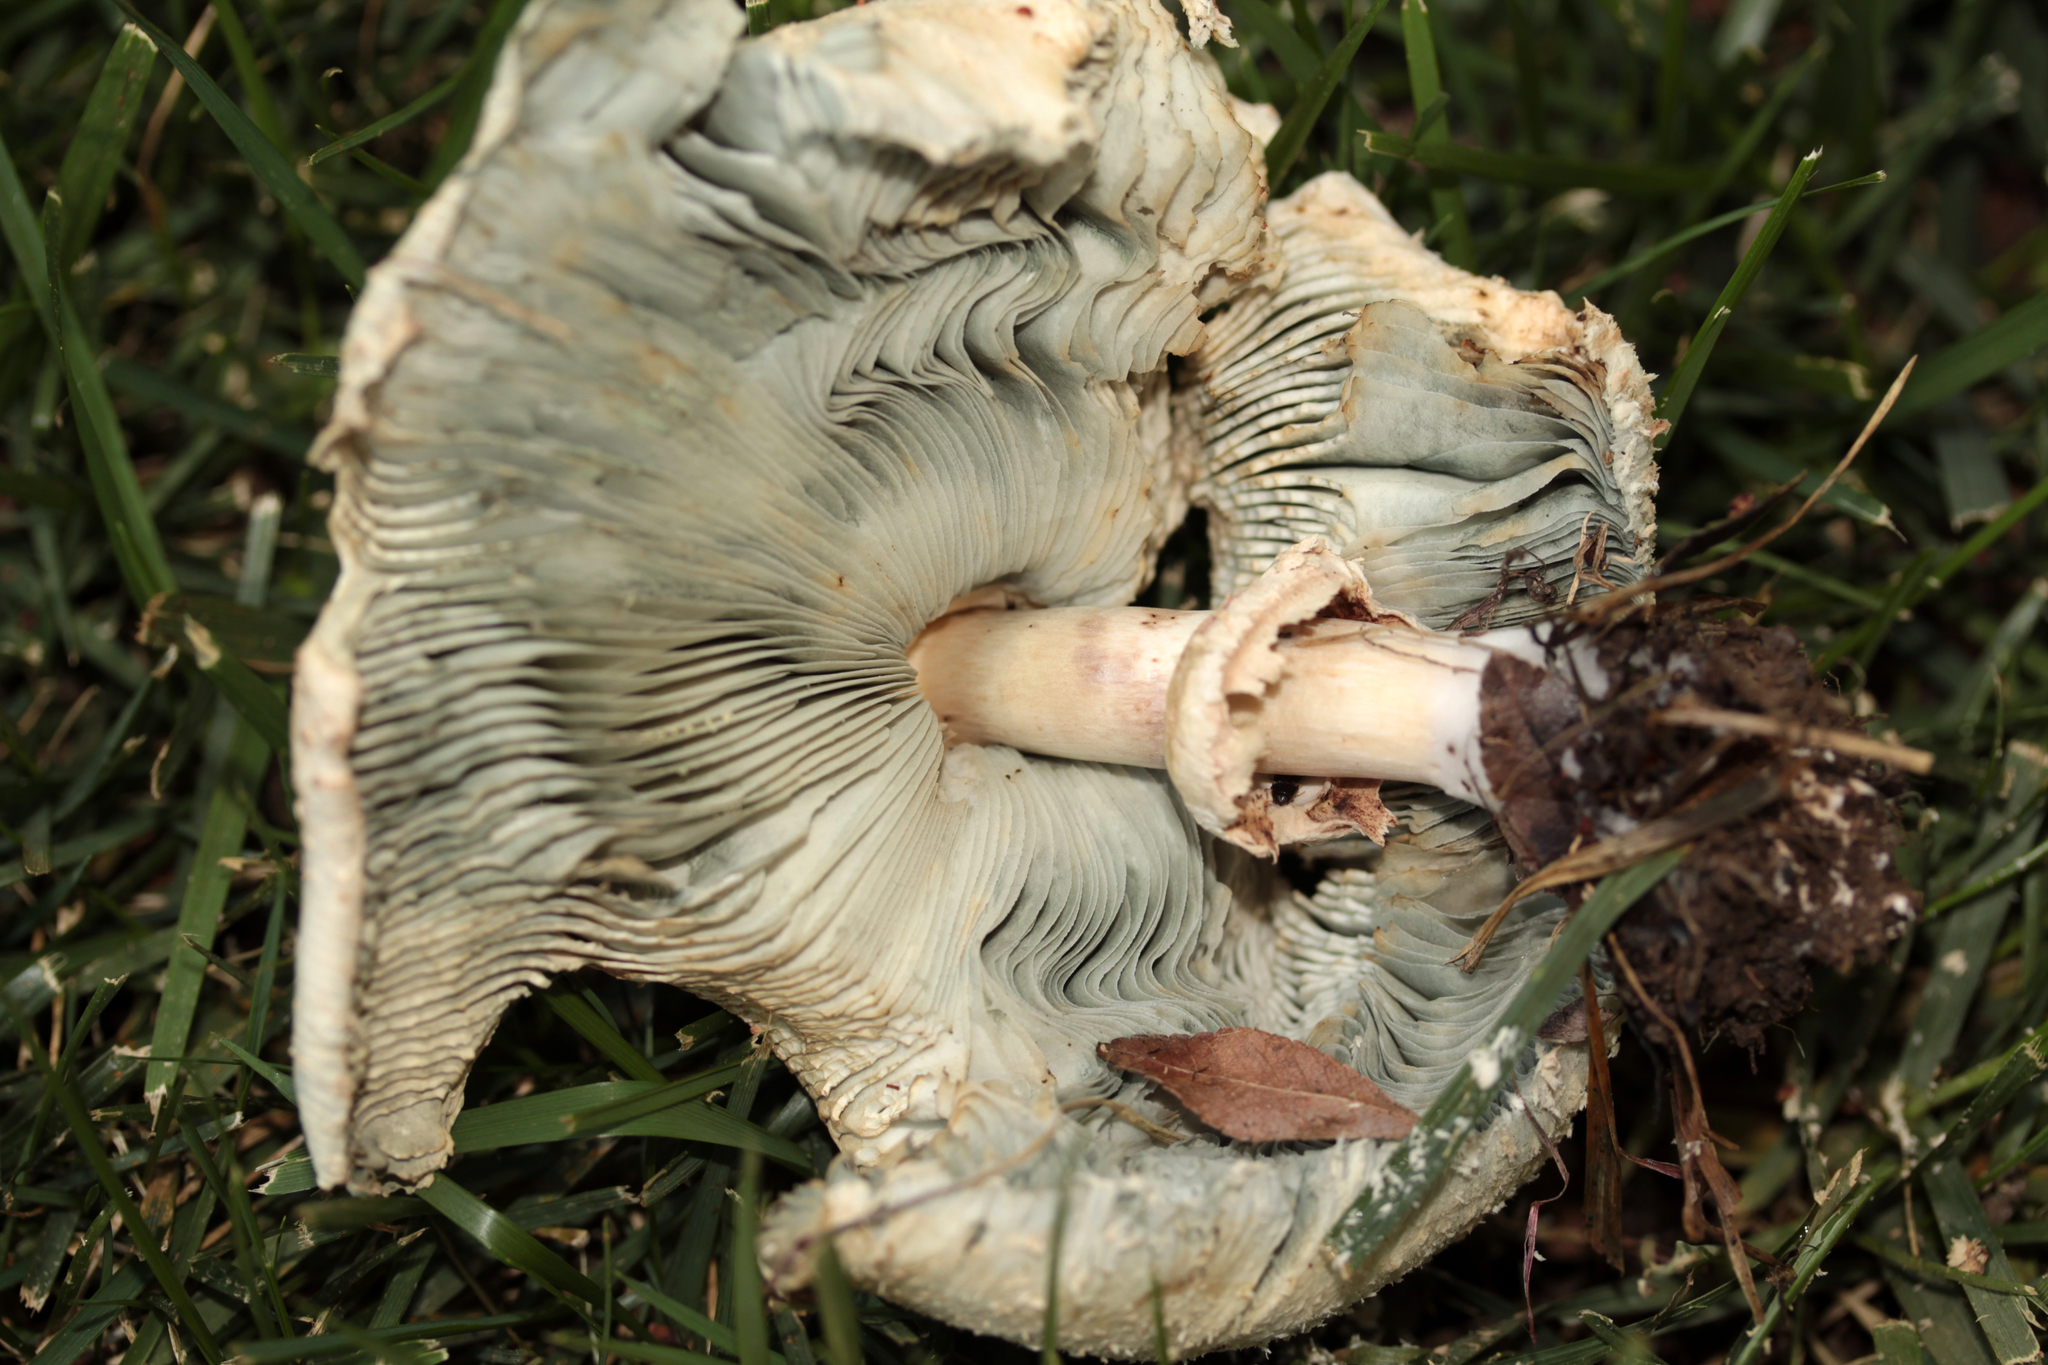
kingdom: Fungi
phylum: Basidiomycota
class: Agaricomycetes
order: Agaricales
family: Agaricaceae
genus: Chlorophyllum
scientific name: Chlorophyllum molybdites
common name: False parasol
